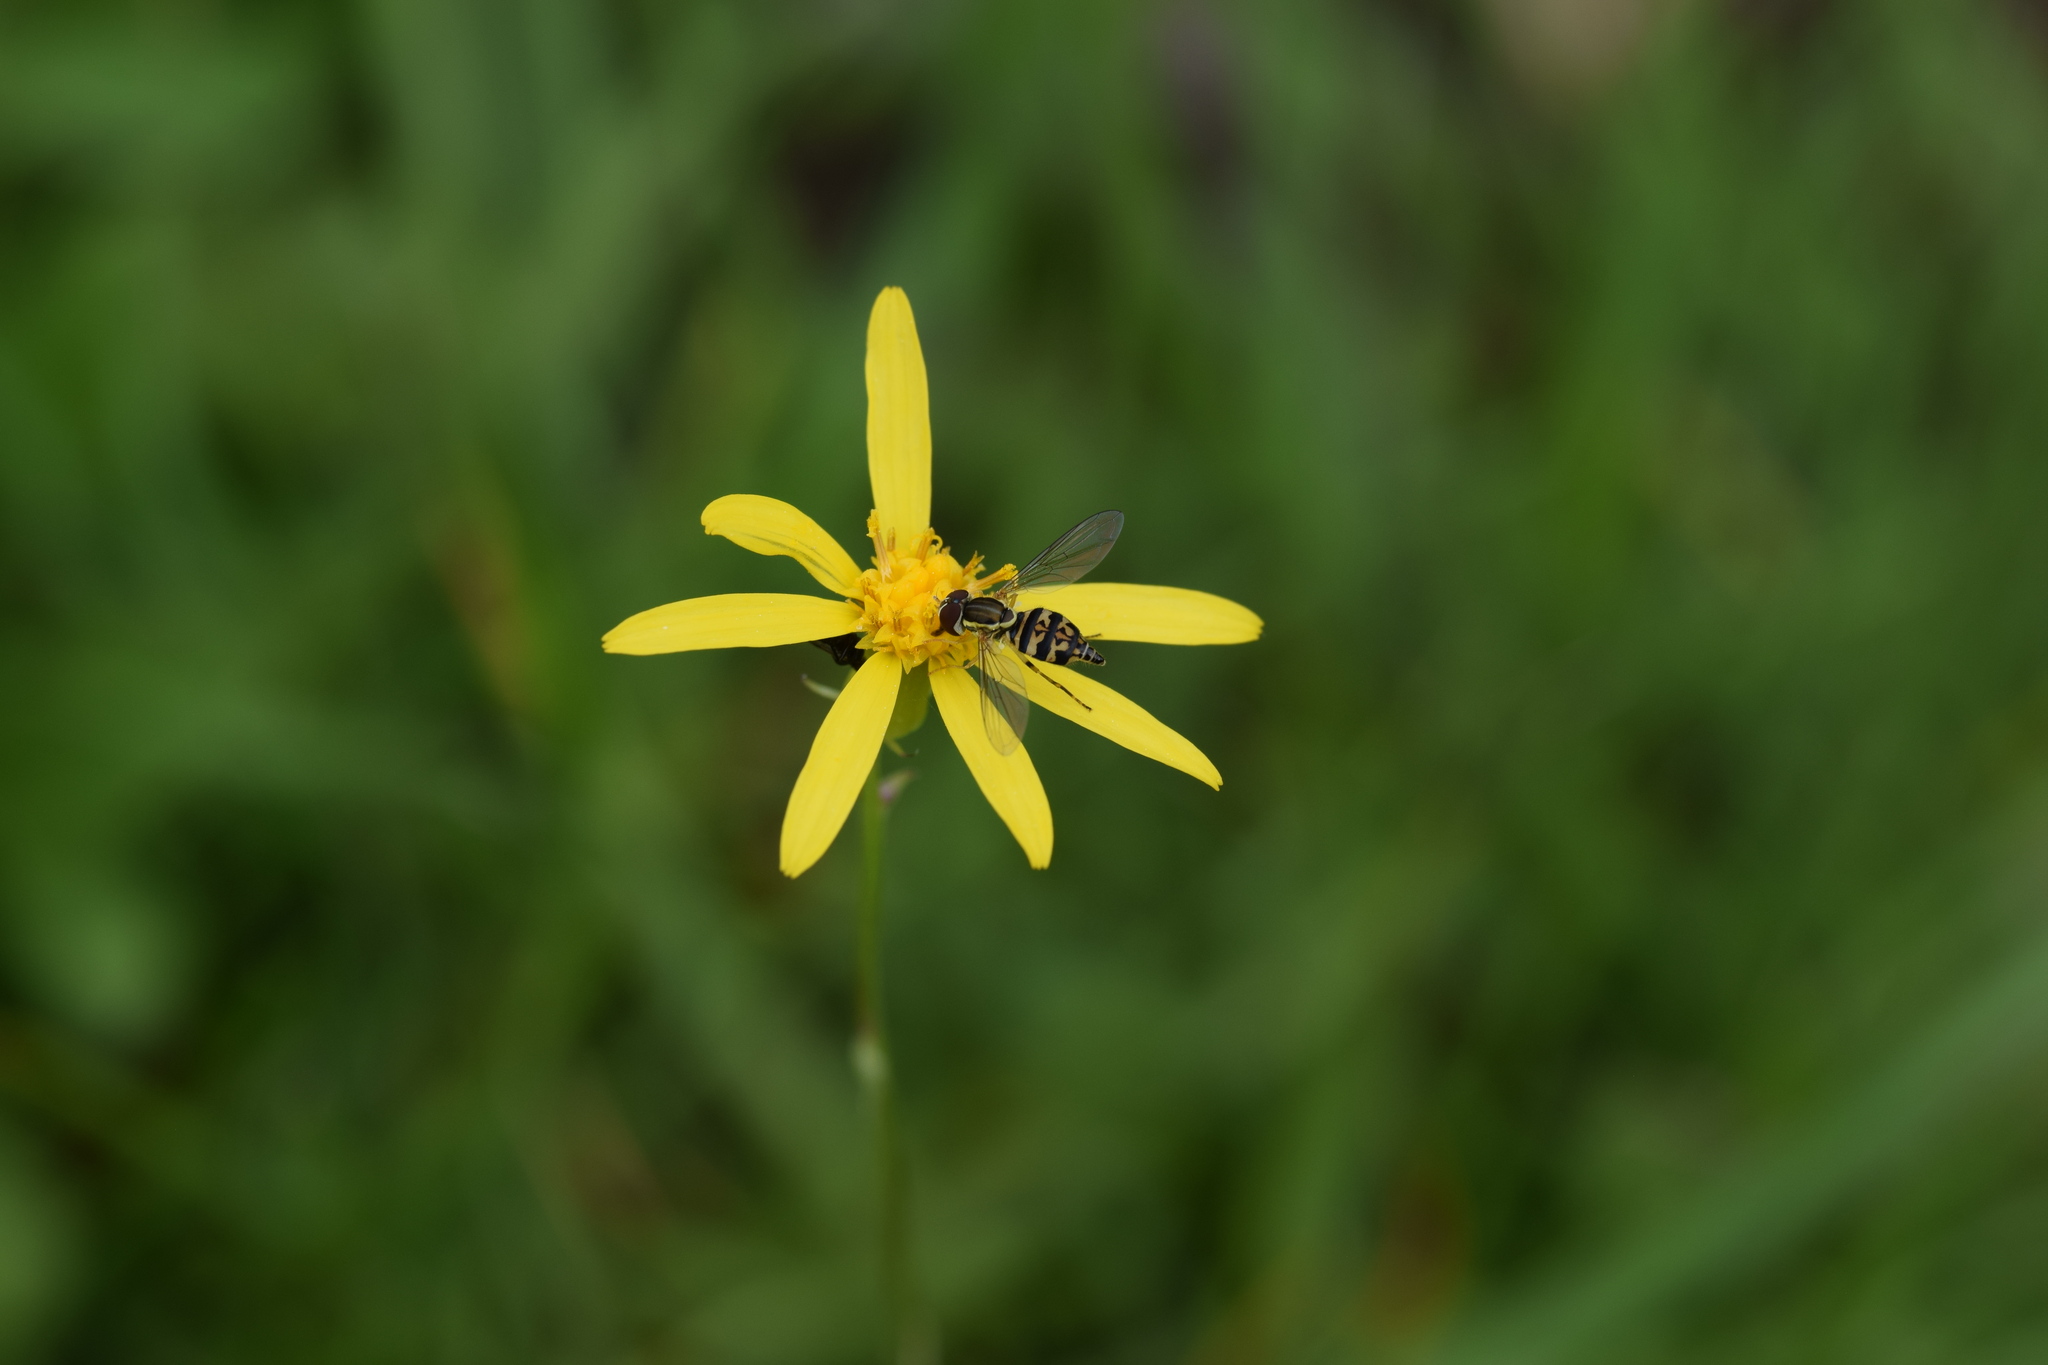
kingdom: Animalia
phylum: Arthropoda
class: Insecta
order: Diptera
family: Syrphidae
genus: Toxomerus
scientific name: Toxomerus geminatus
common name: Eastern calligrapher
